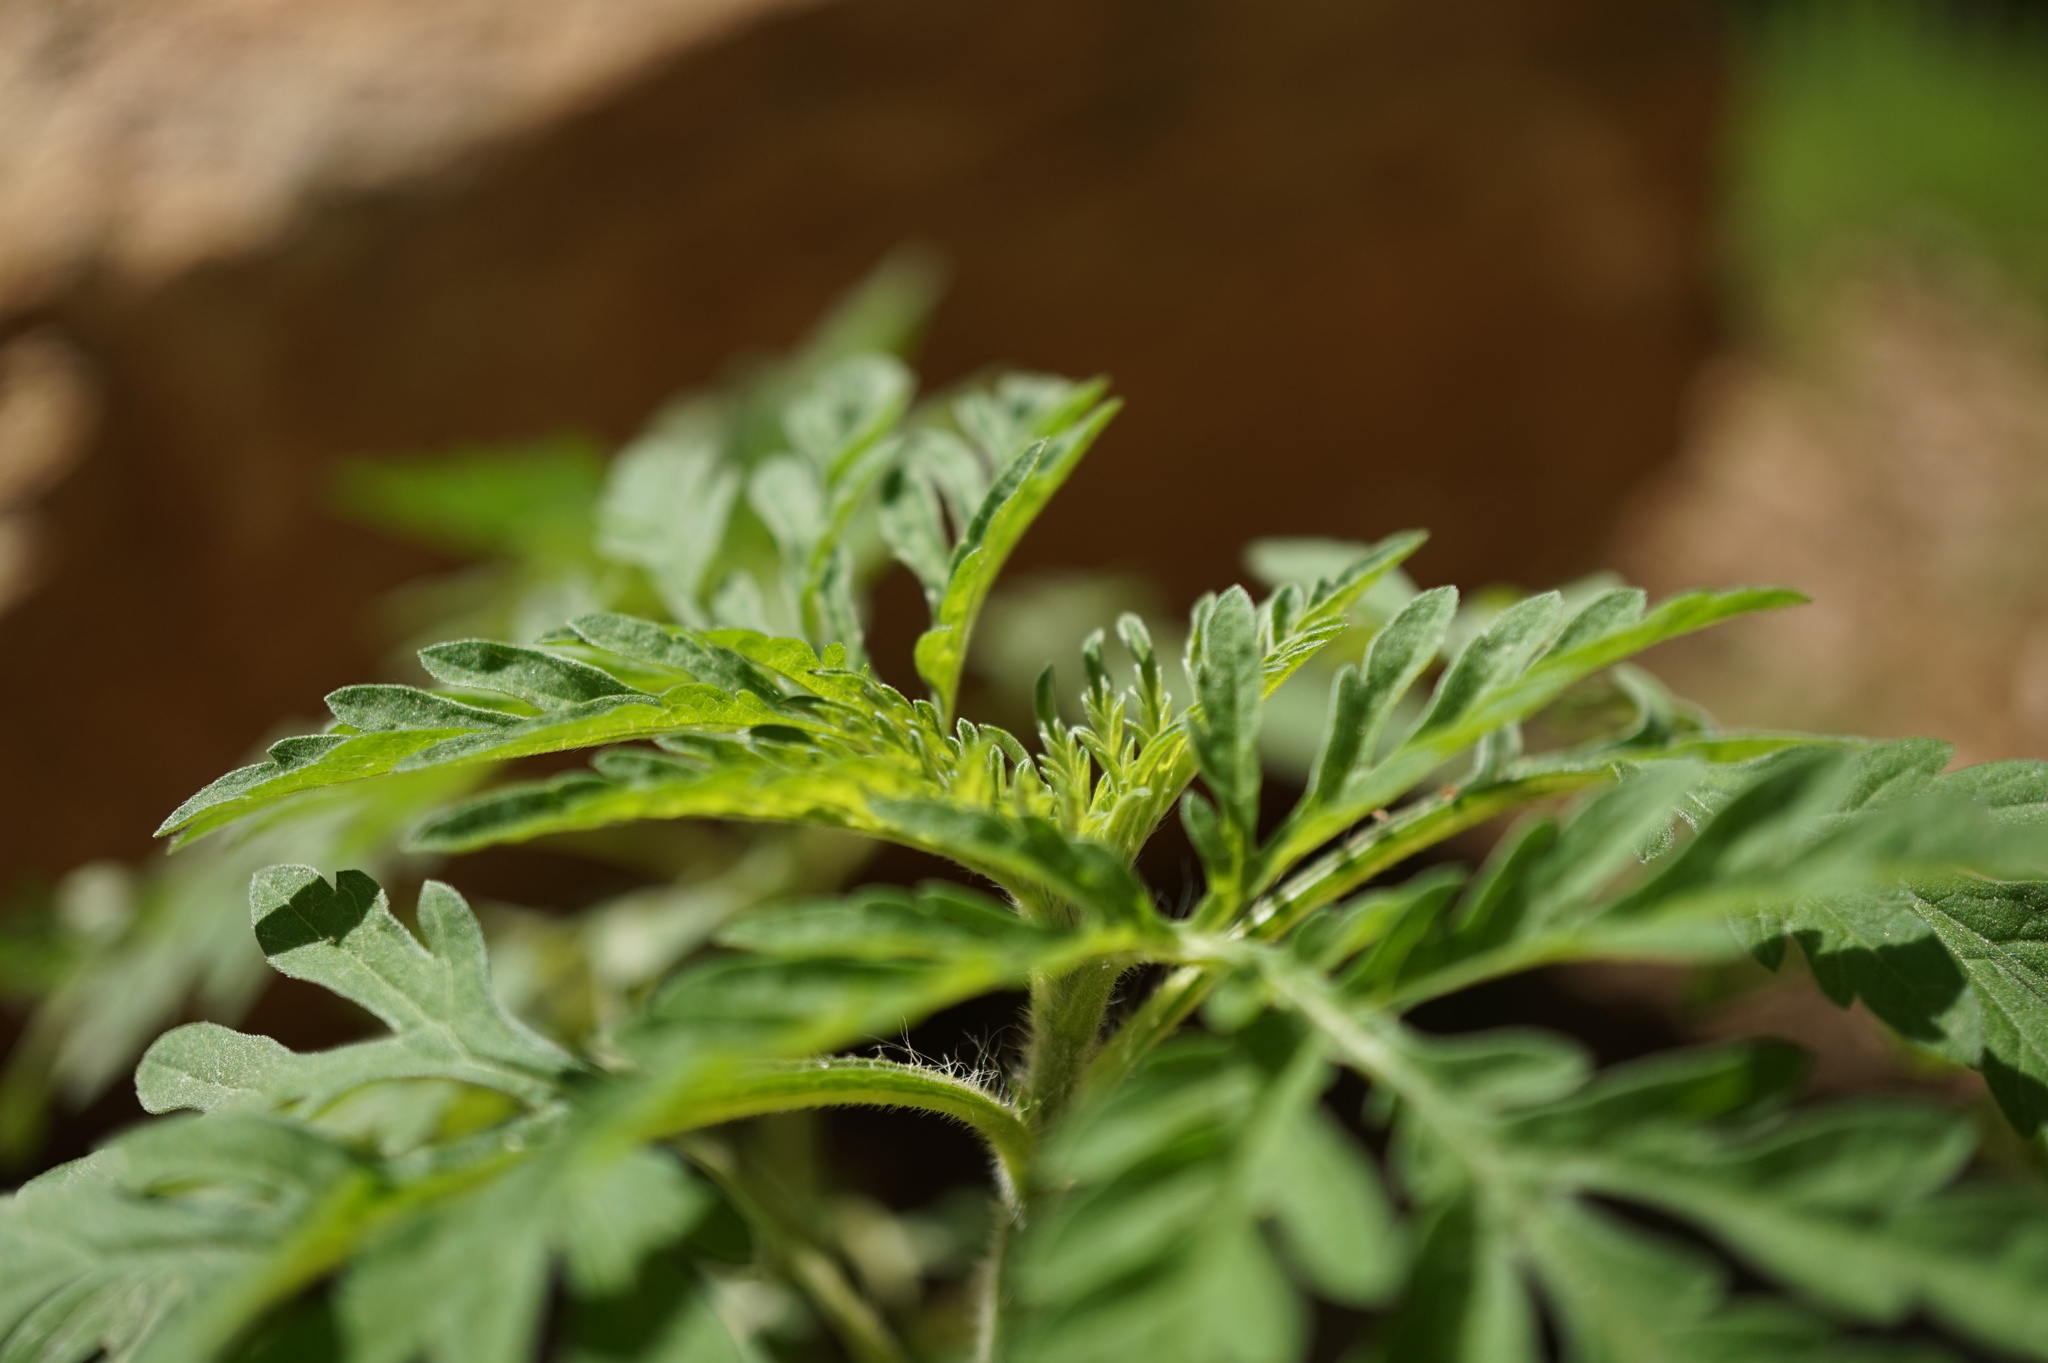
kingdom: Plantae
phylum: Tracheophyta
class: Magnoliopsida
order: Asterales
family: Asteraceae
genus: Ambrosia
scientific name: Ambrosia artemisiifolia
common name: Annual ragweed
